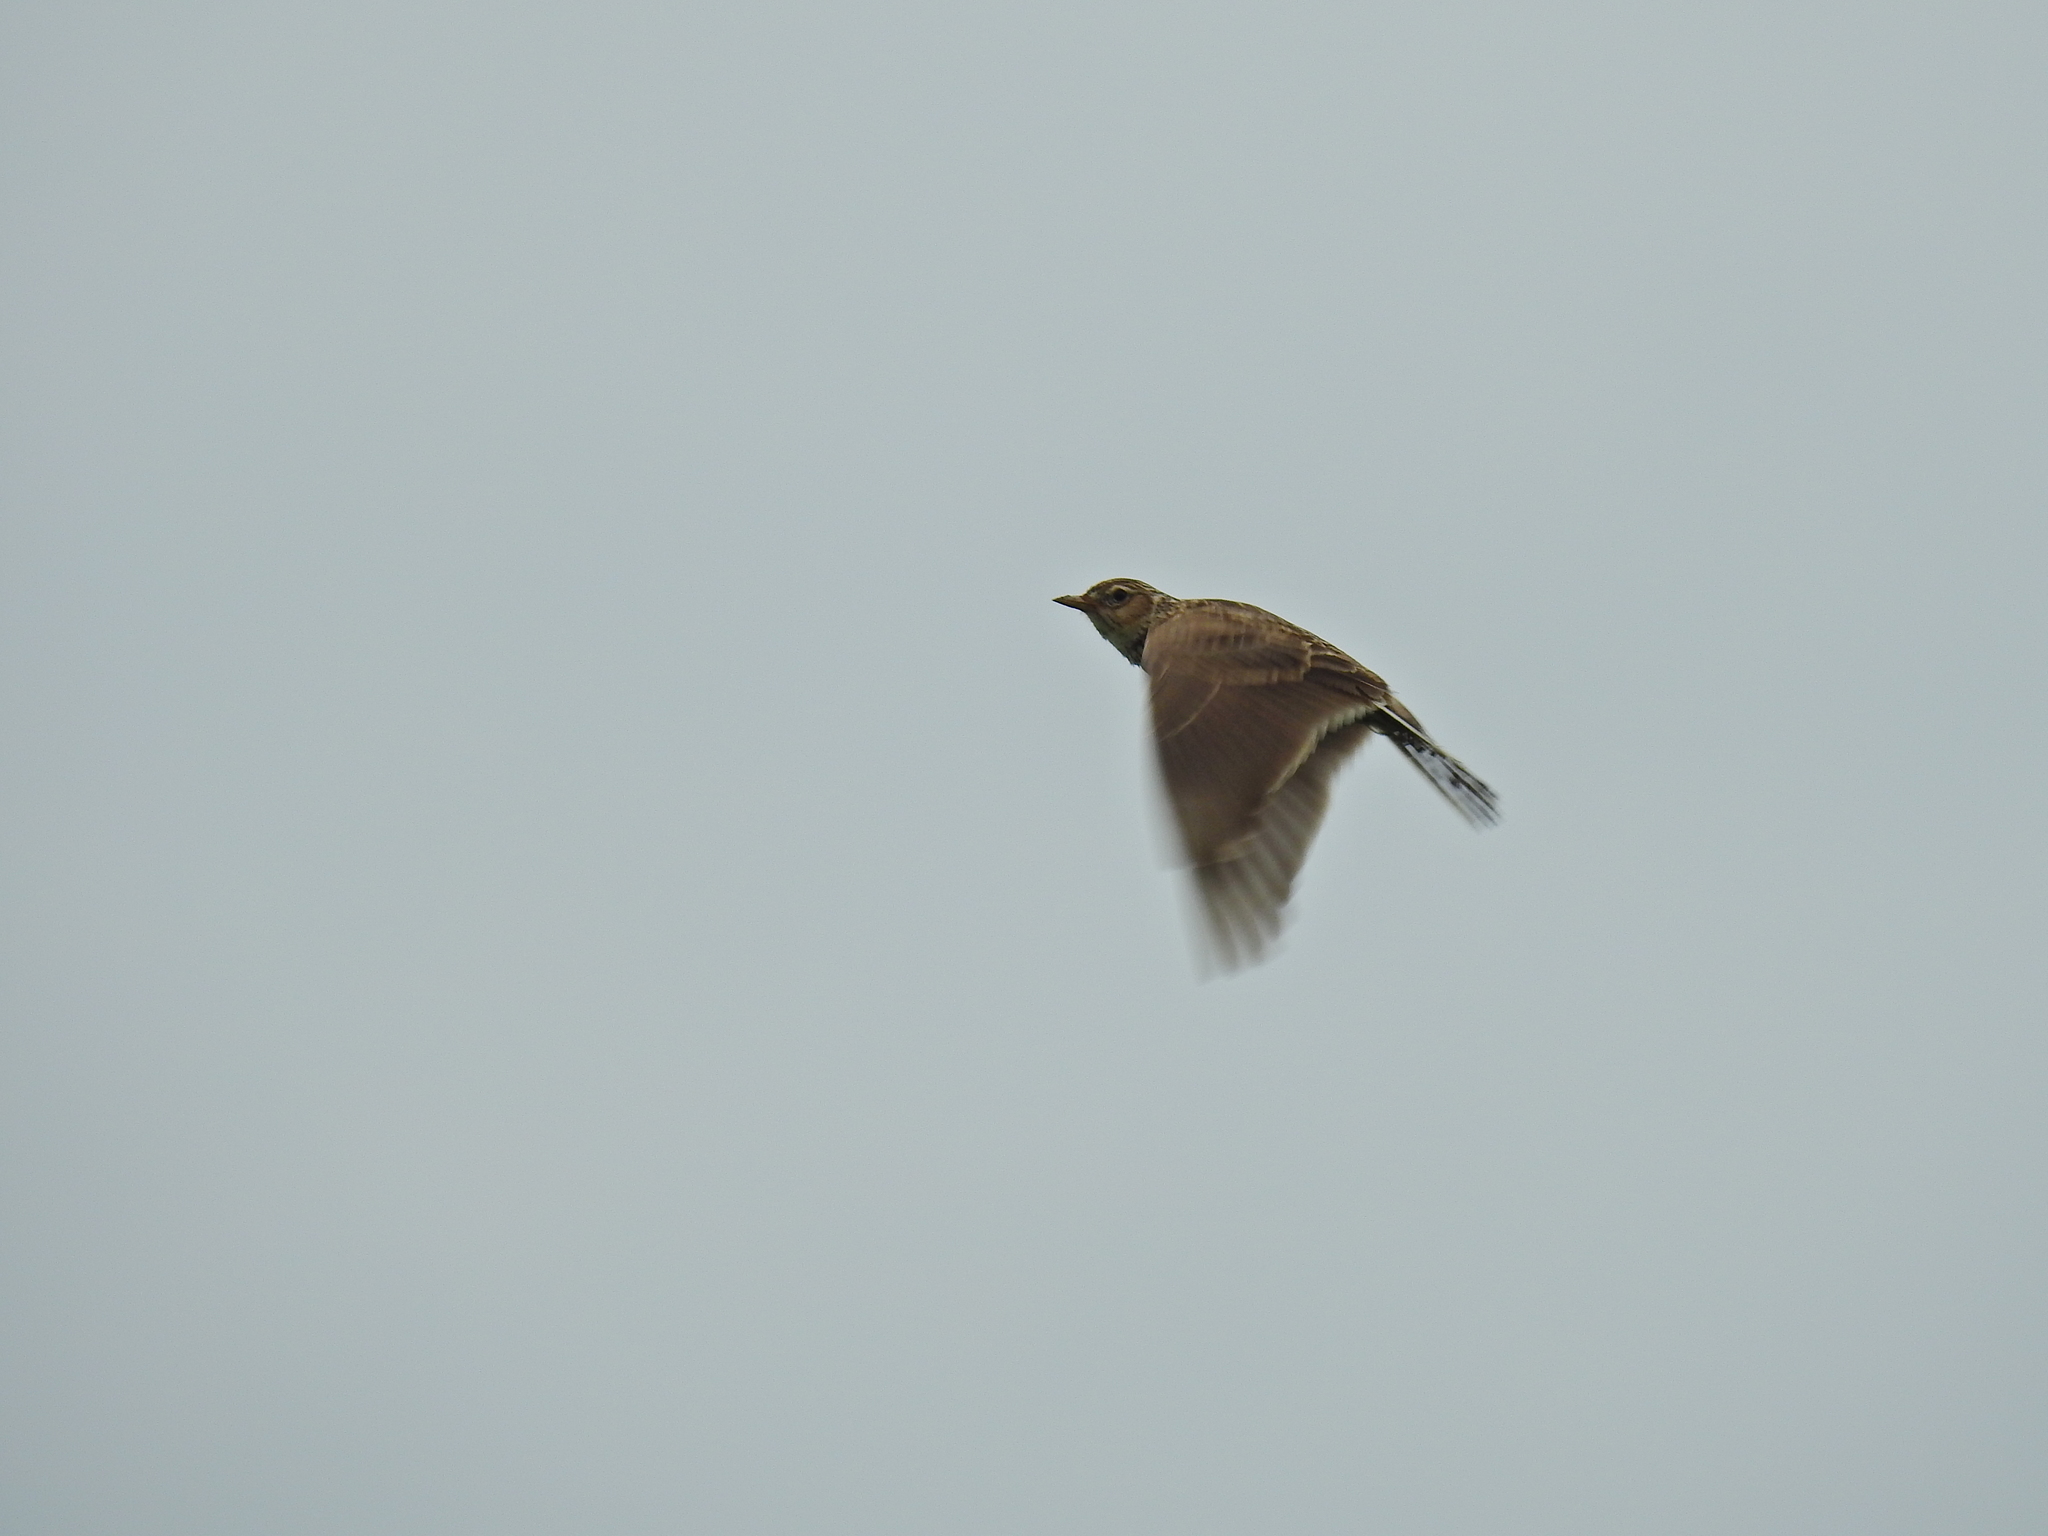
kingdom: Animalia
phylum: Chordata
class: Aves
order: Passeriformes
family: Alaudidae
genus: Alauda
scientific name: Alauda arvensis
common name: Eurasian skylark
